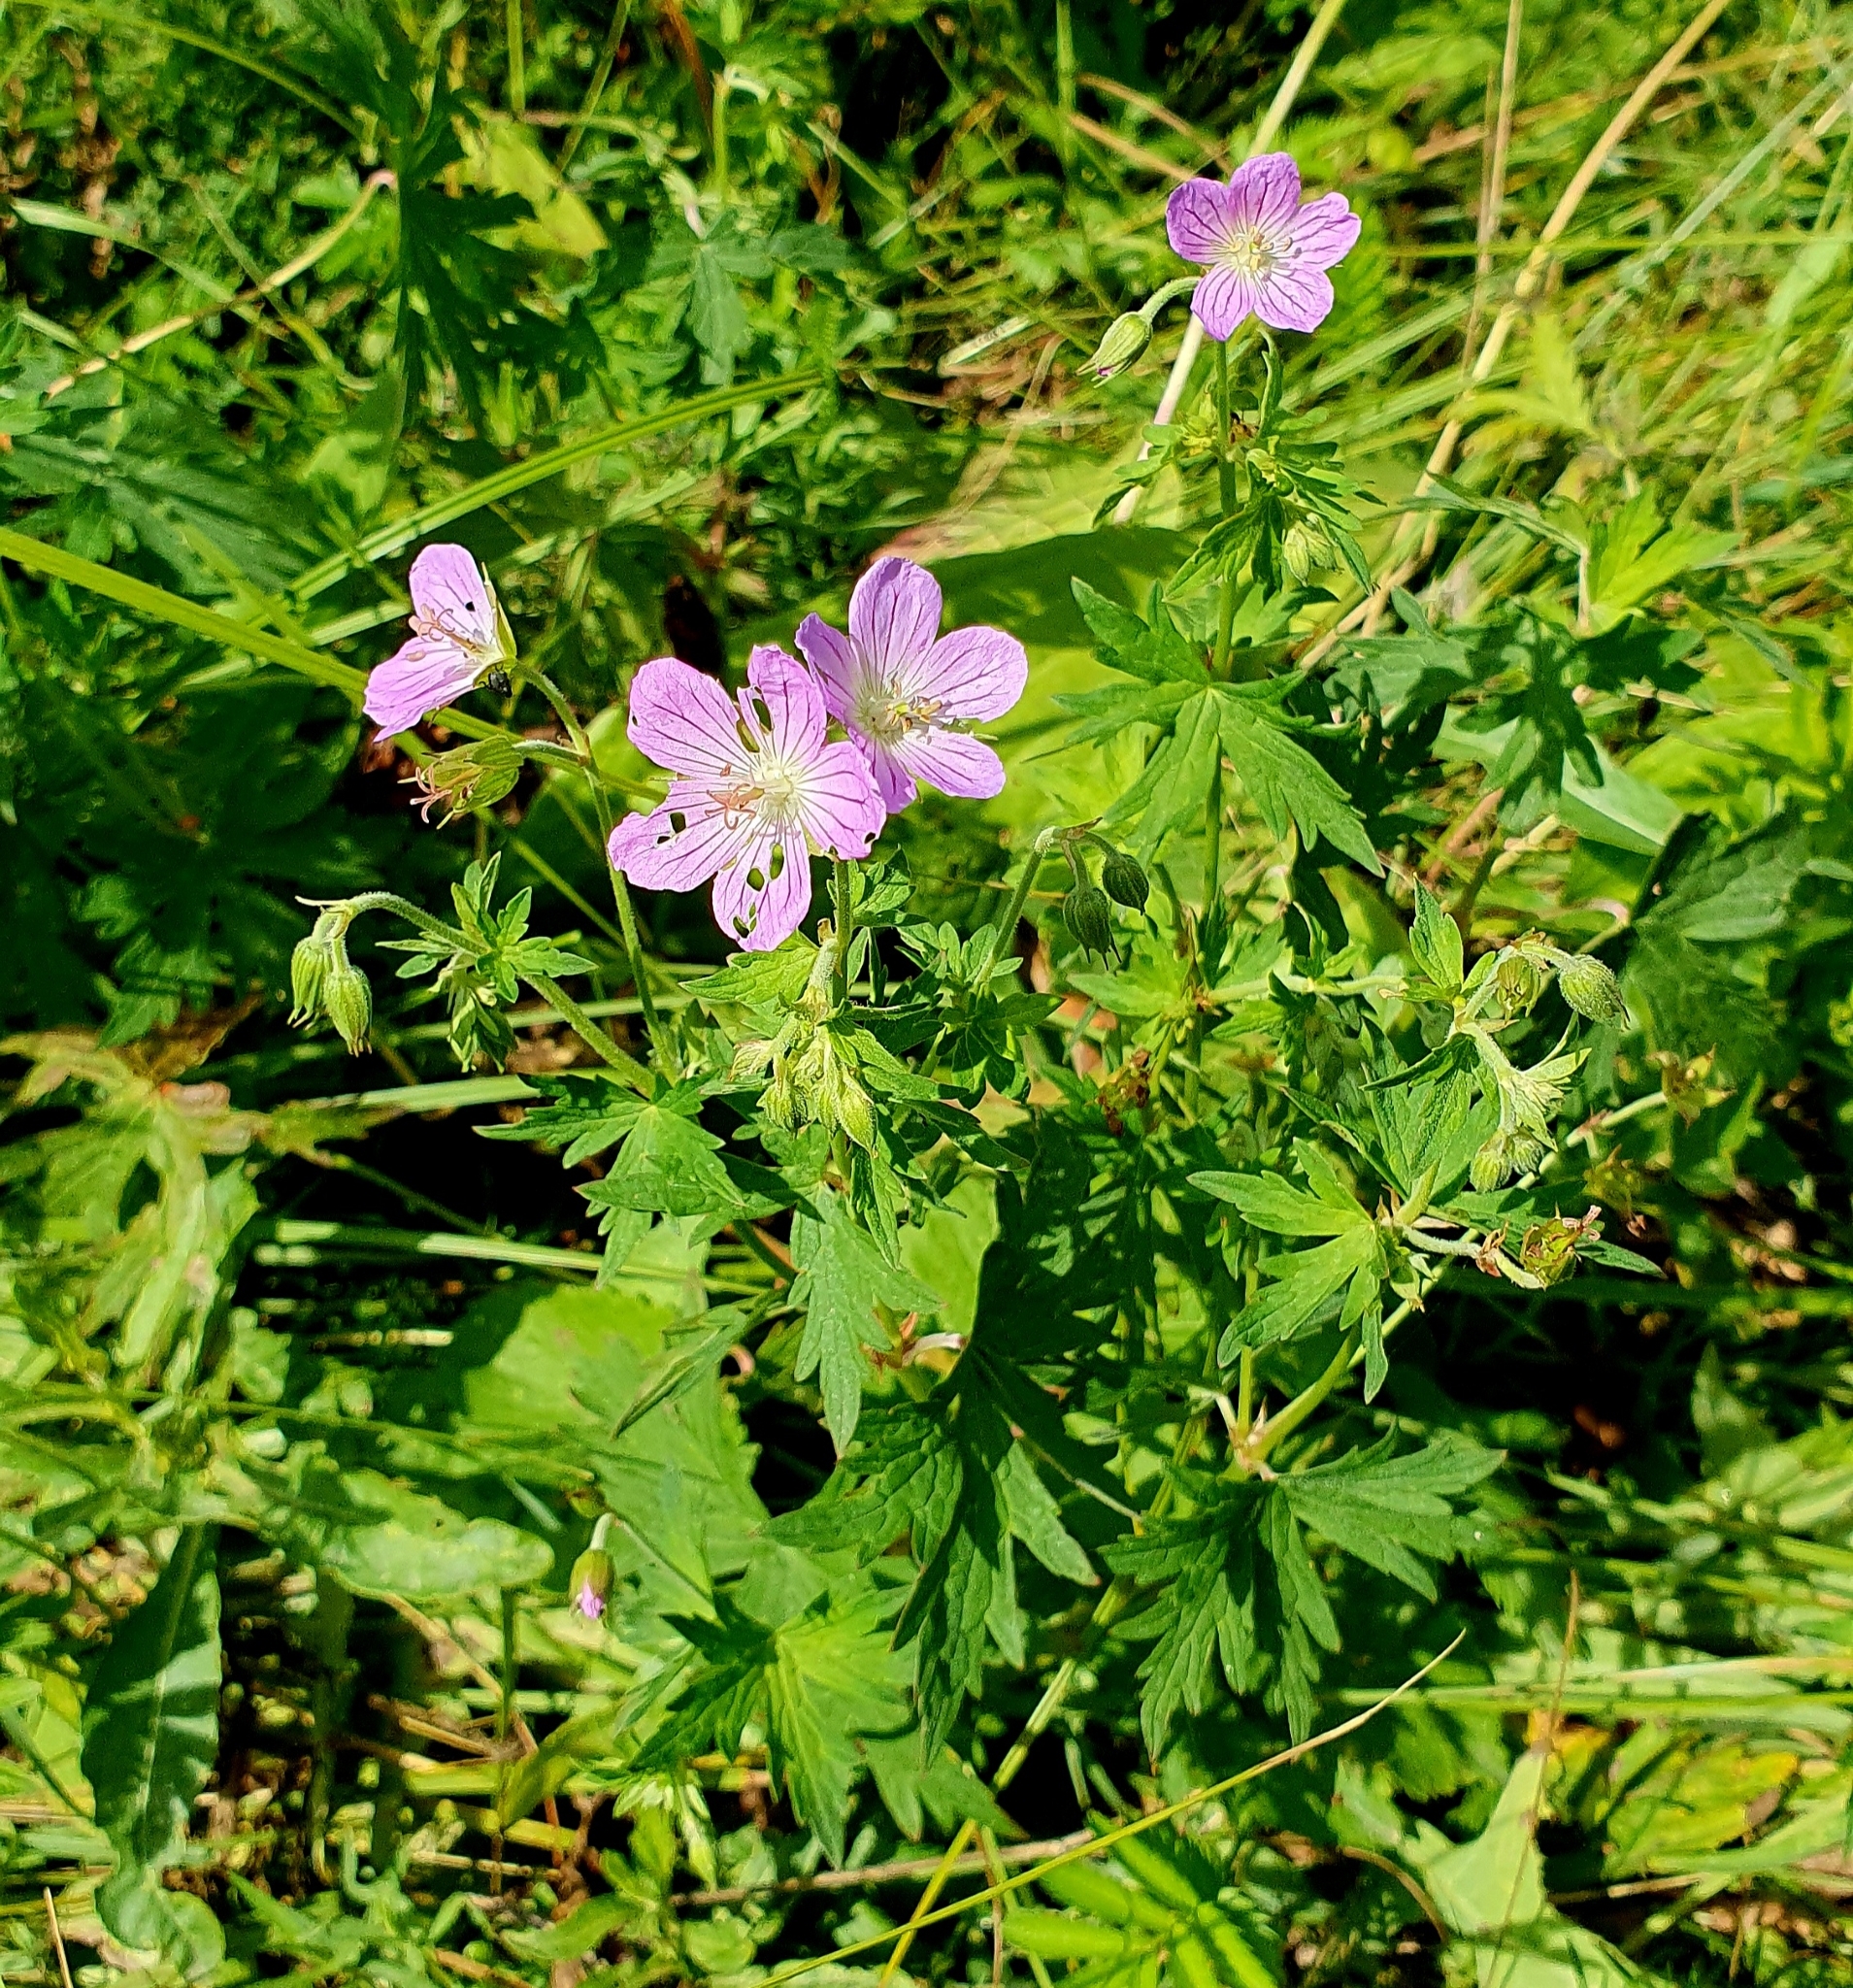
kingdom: Plantae
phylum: Tracheophyta
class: Magnoliopsida
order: Geraniales
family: Geraniaceae
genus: Geranium
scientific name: Geranium collinum
